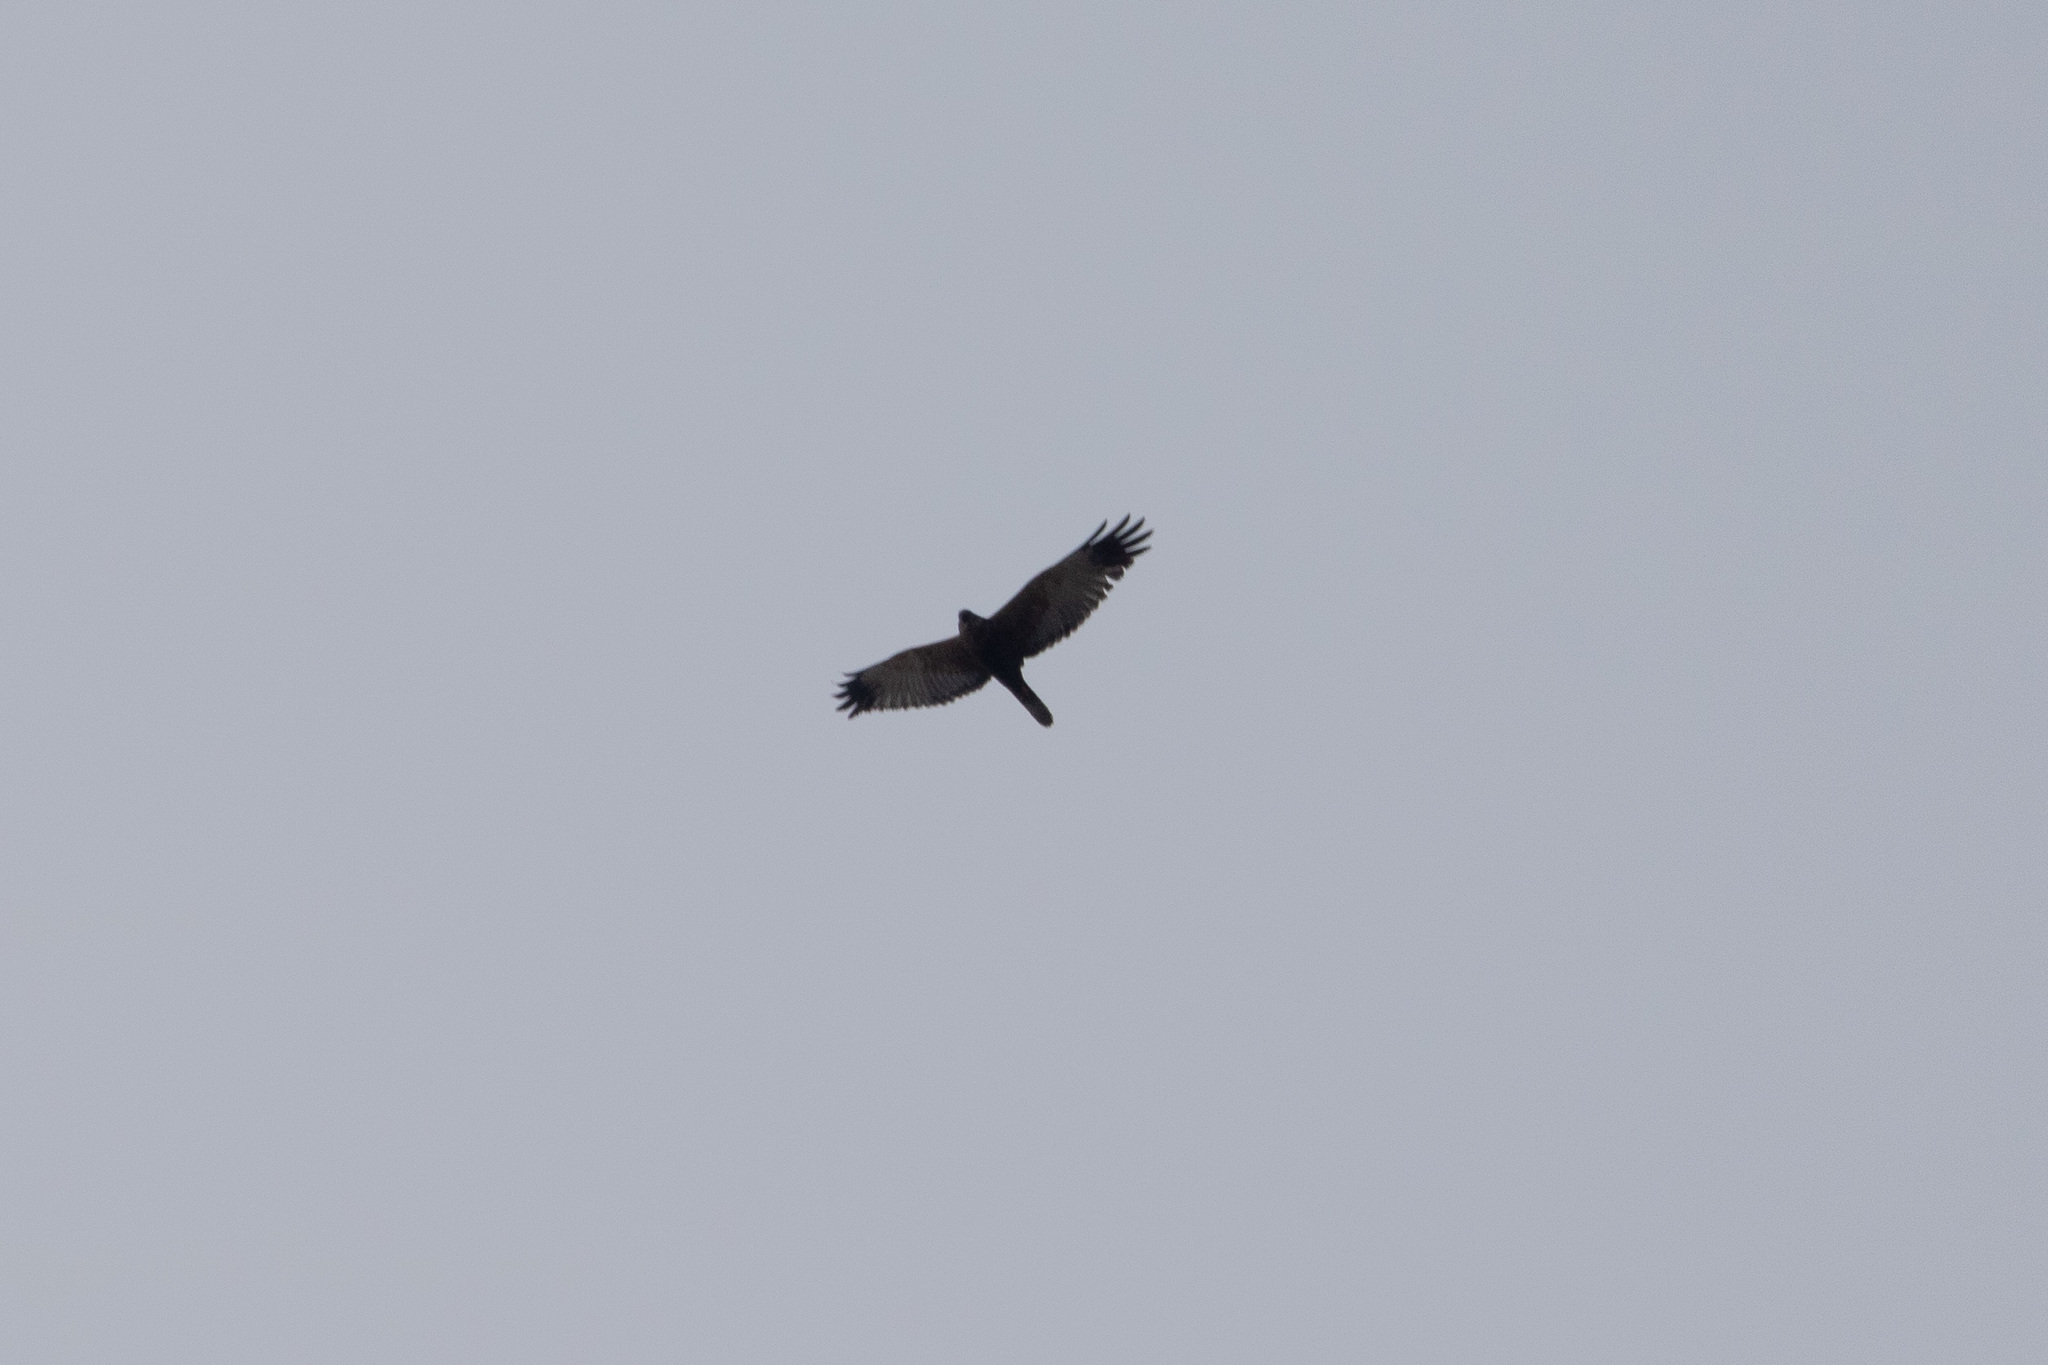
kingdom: Animalia
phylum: Chordata
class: Aves
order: Accipitriformes
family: Accipitridae
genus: Circus
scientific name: Circus aeruginosus
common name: Western marsh harrier
